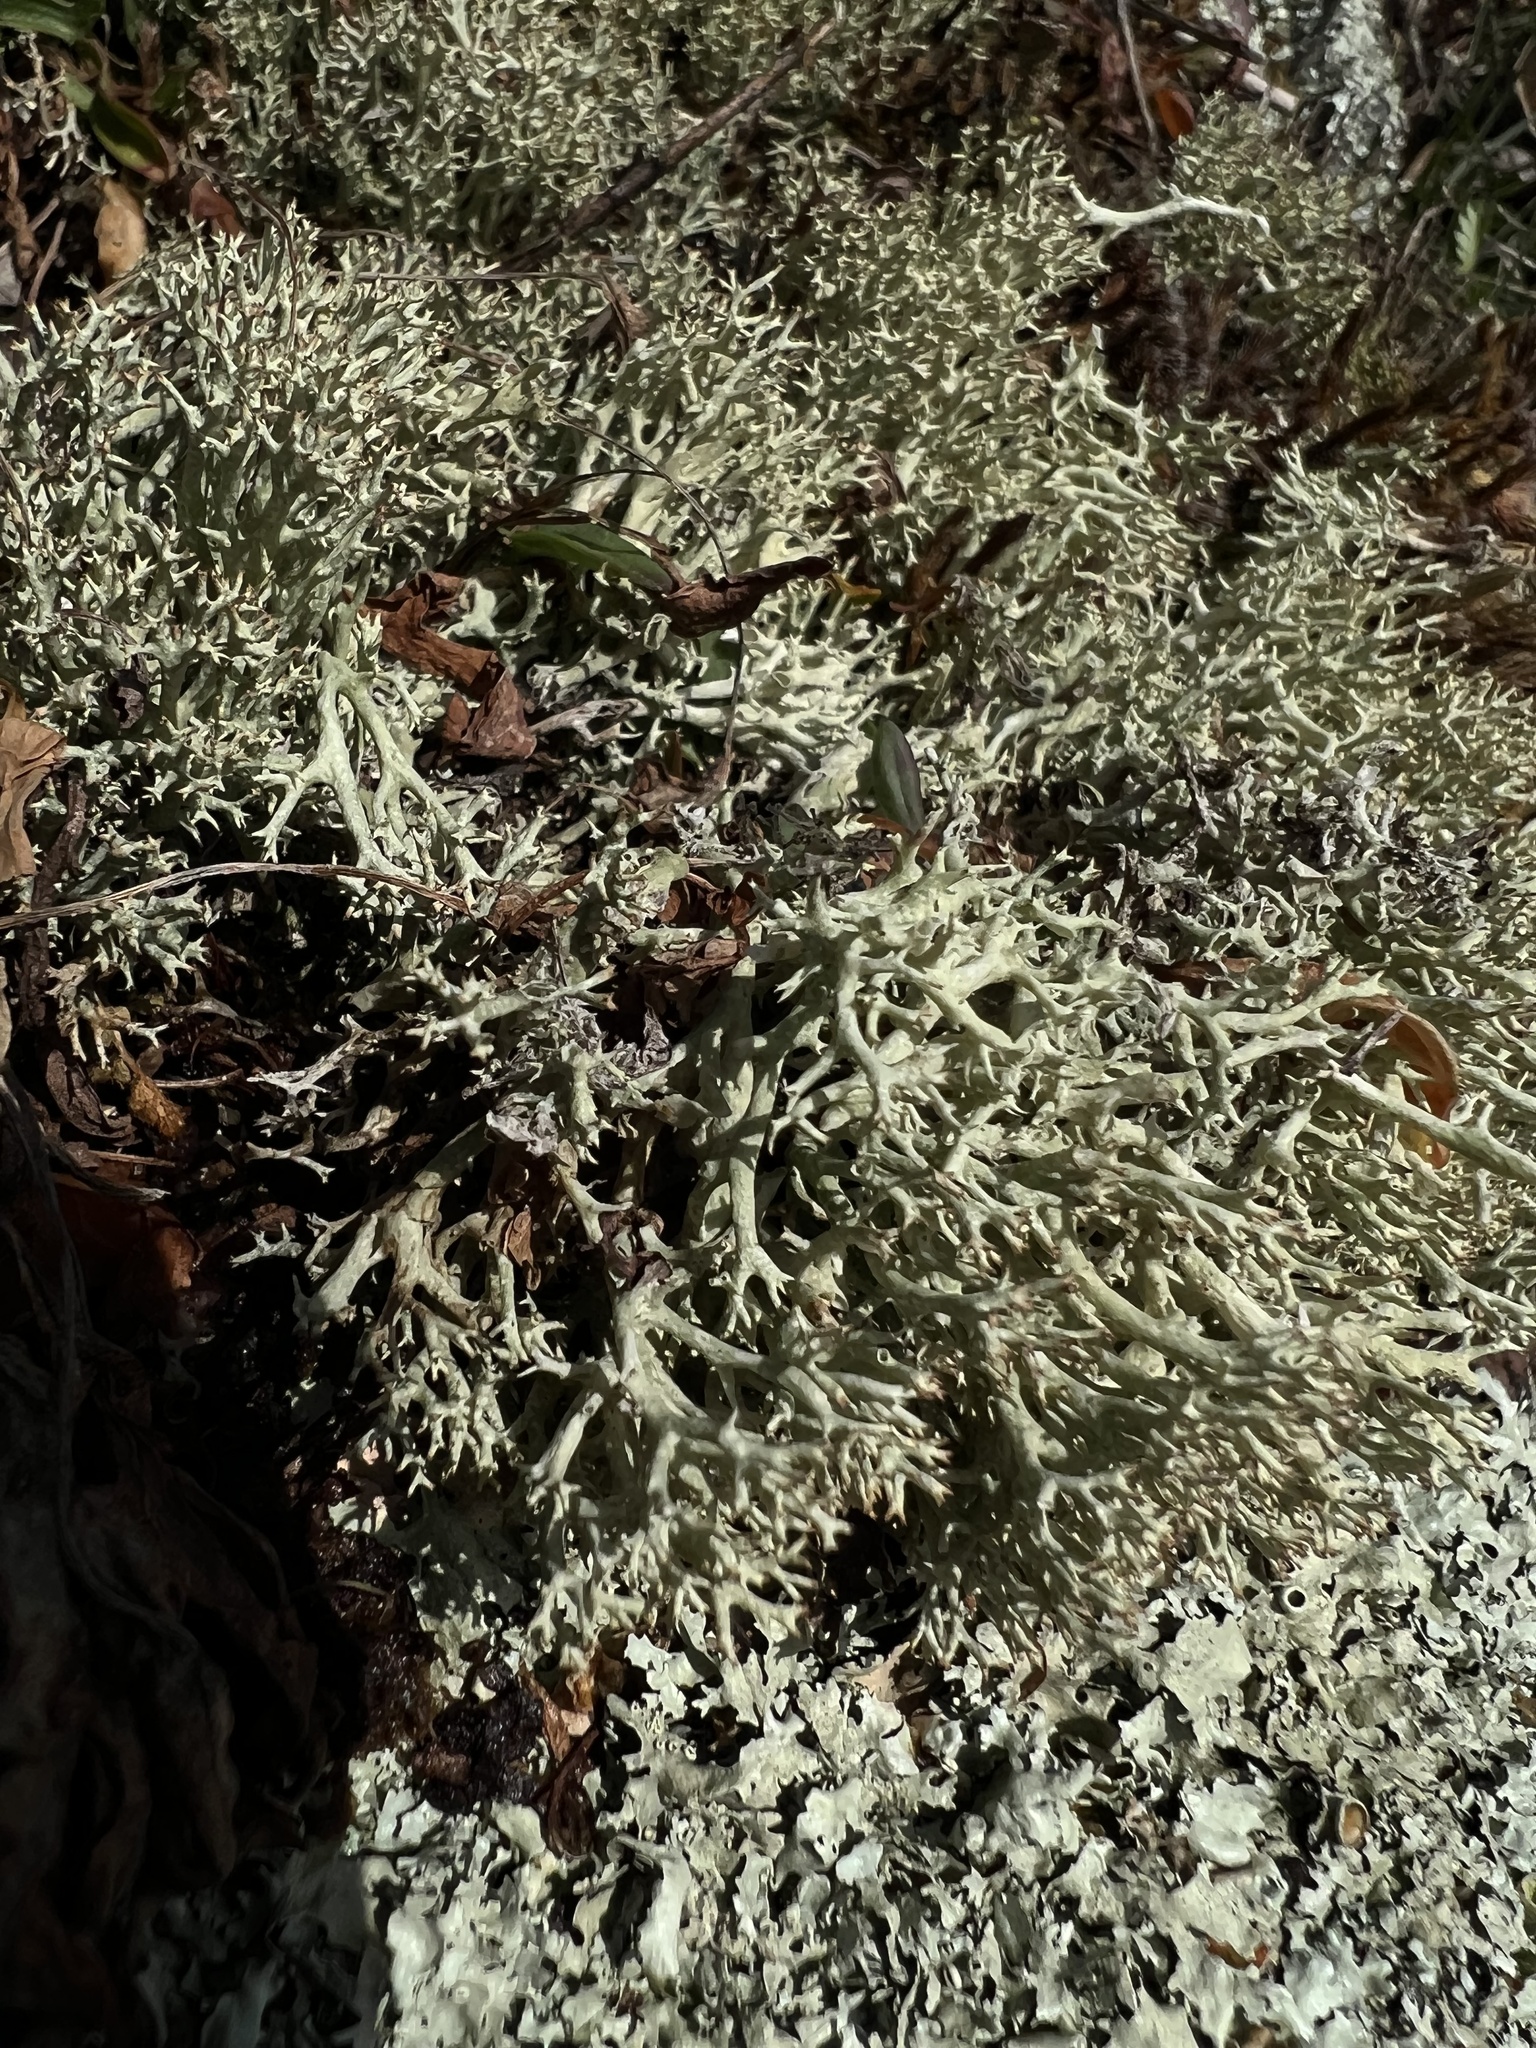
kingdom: Fungi
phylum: Ascomycota
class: Lecanoromycetes
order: Lecanorales
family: Cladoniaceae
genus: Cladonia
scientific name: Cladonia uncialis
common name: Thorn lichen
